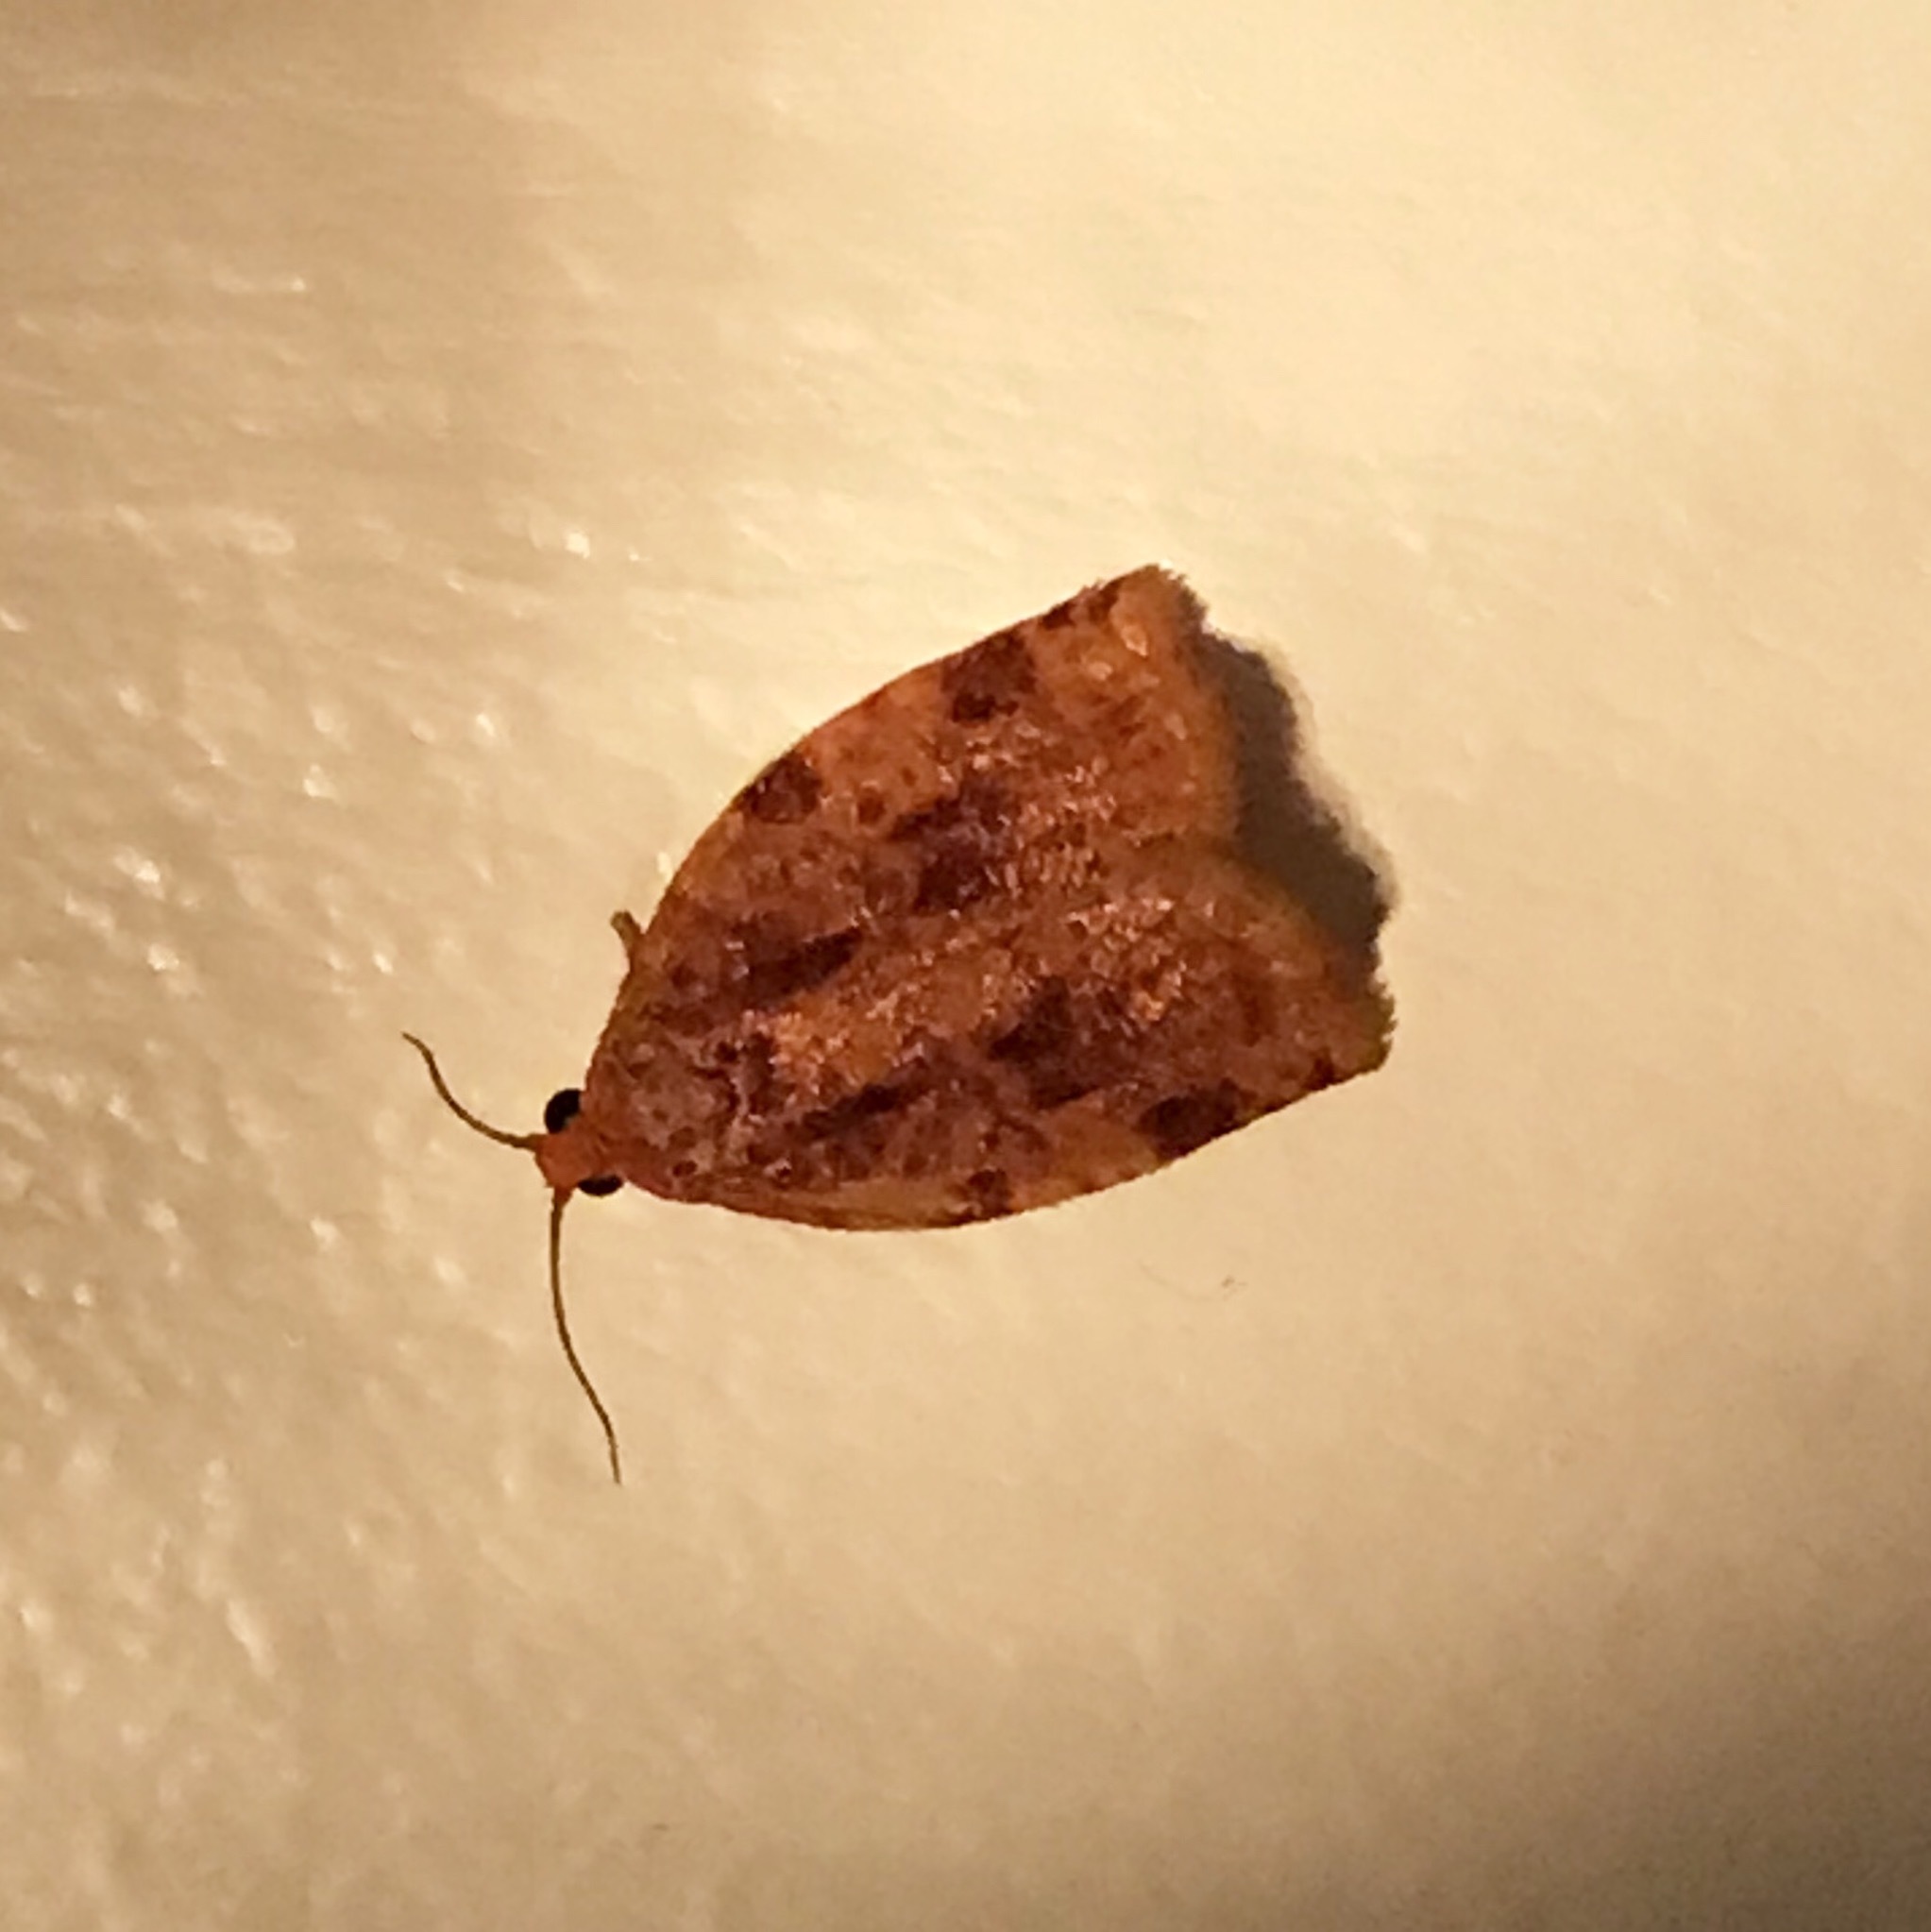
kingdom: Animalia
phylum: Arthropoda
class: Insecta
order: Lepidoptera
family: Tortricidae
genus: Archips
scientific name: Archips cerasivorana
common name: Uglynest caterpillar
